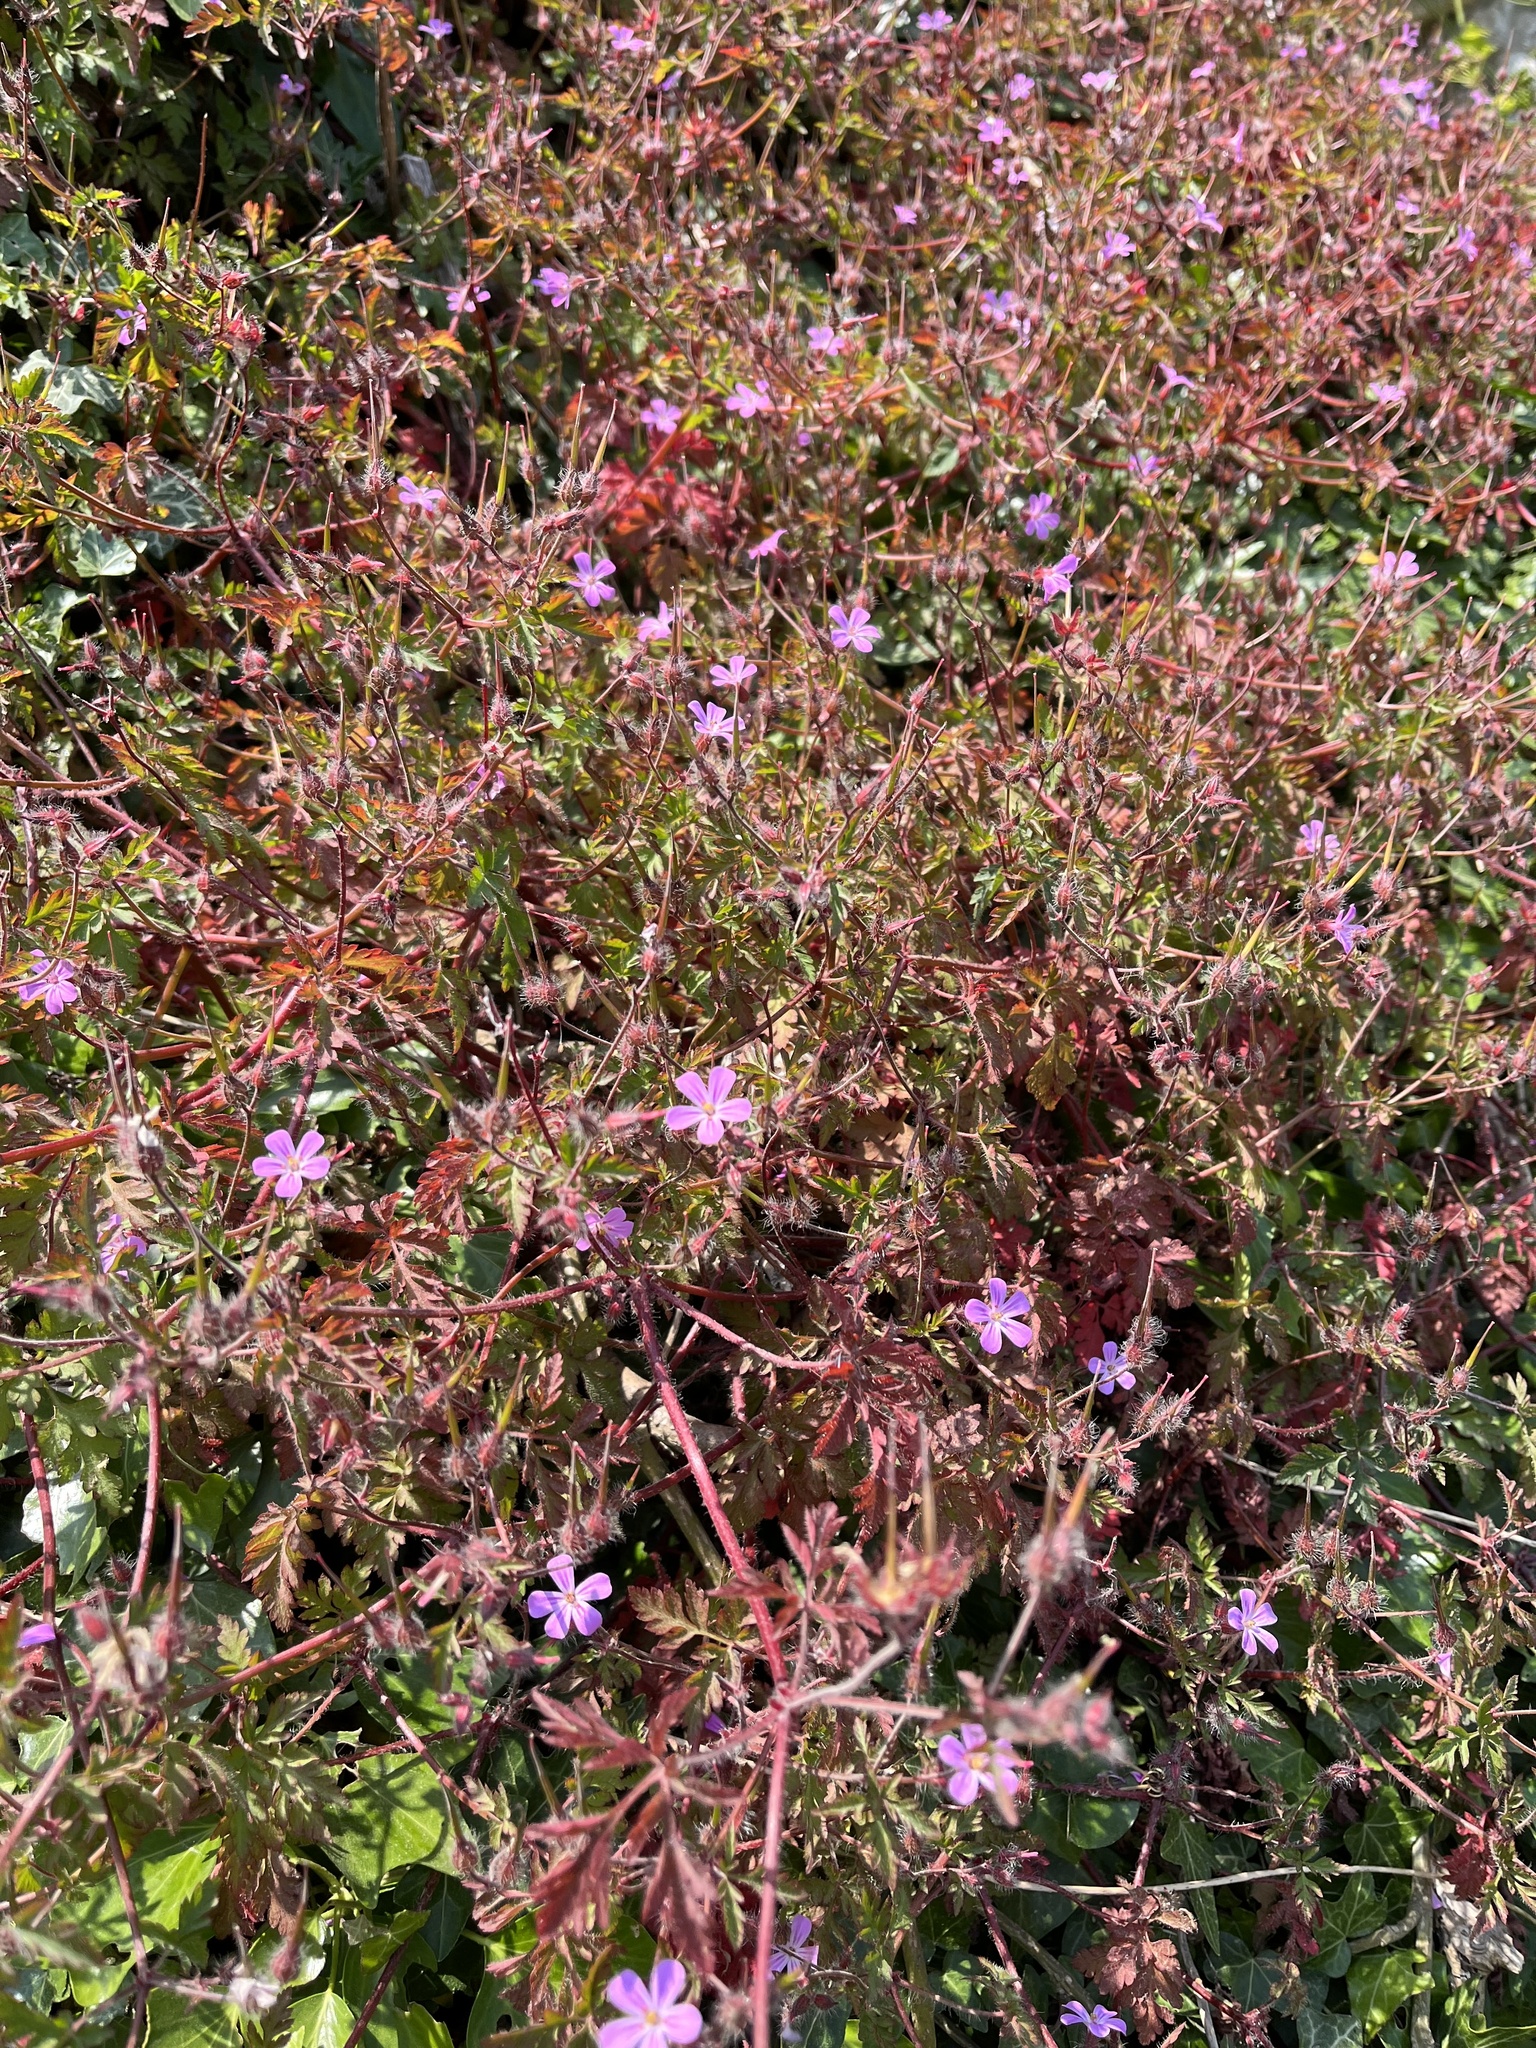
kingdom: Plantae
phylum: Tracheophyta
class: Magnoliopsida
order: Geraniales
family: Geraniaceae
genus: Geranium
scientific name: Geranium robertianum
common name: Herb-robert
